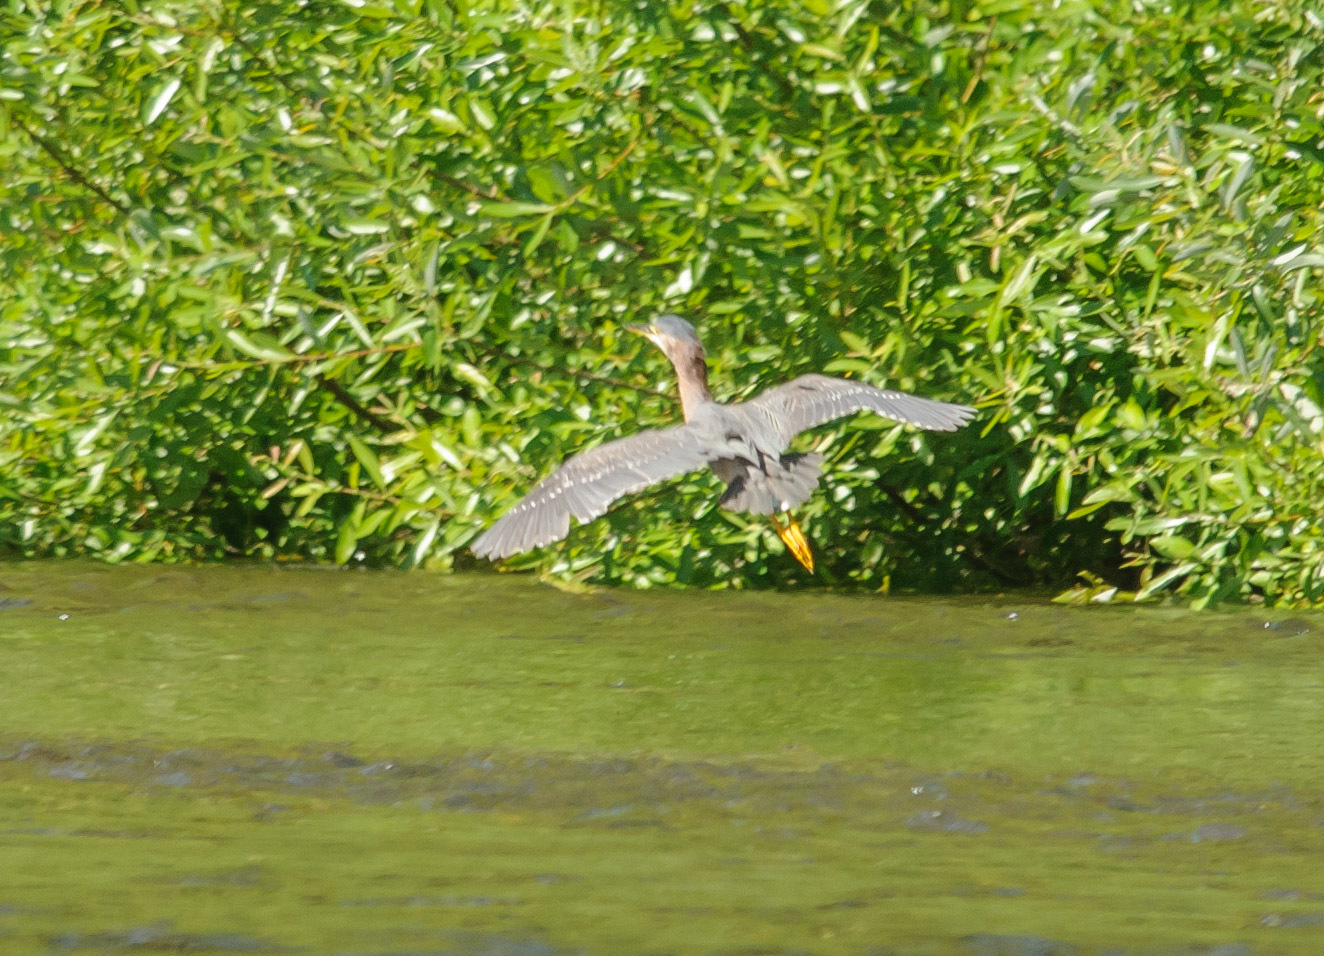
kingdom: Animalia
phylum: Chordata
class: Aves
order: Pelecaniformes
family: Ardeidae
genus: Butorides
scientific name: Butorides virescens
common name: Green heron
